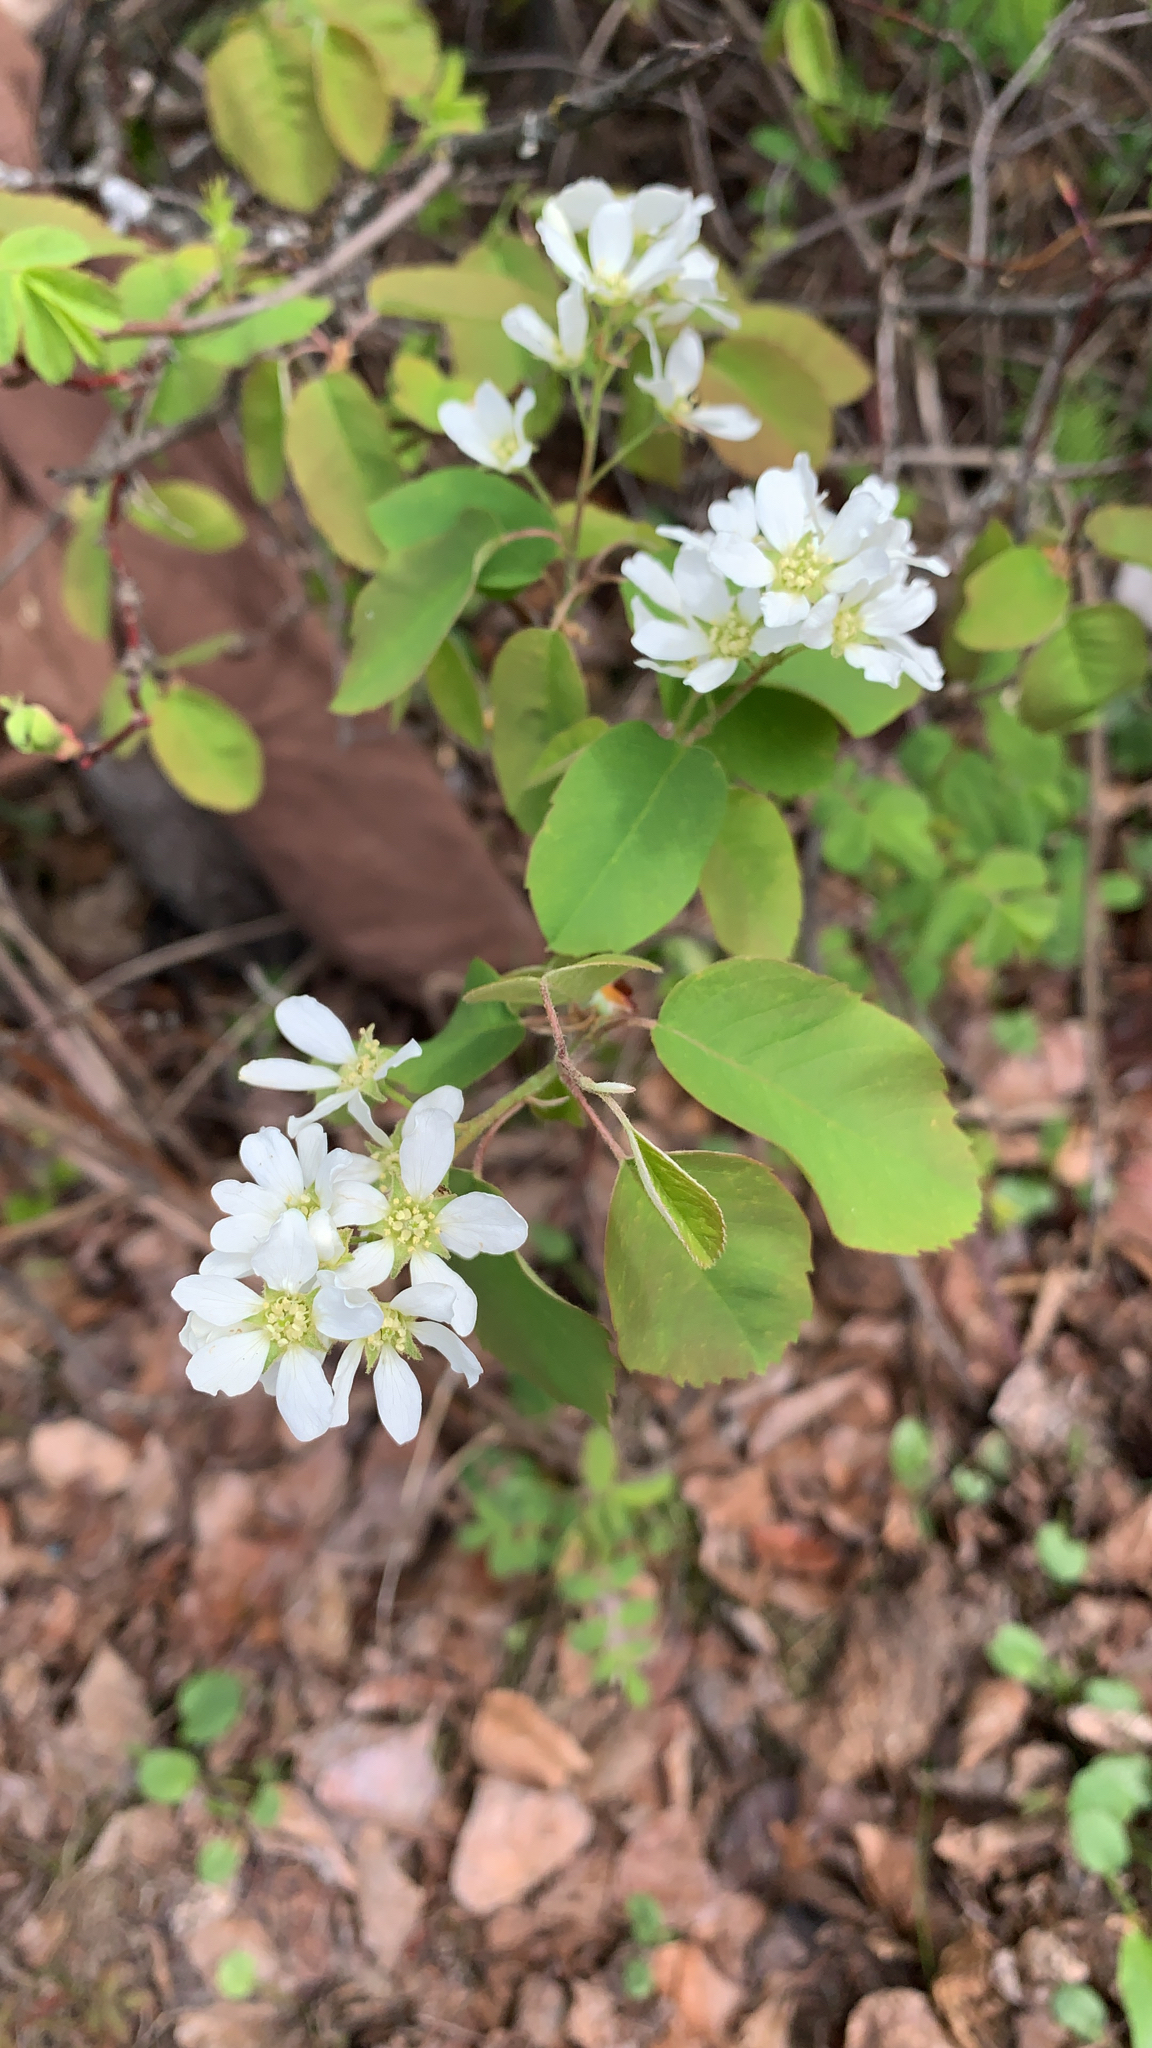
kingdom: Plantae
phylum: Tracheophyta
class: Magnoliopsida
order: Rosales
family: Rosaceae
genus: Amelanchier
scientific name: Amelanchier alnifolia
